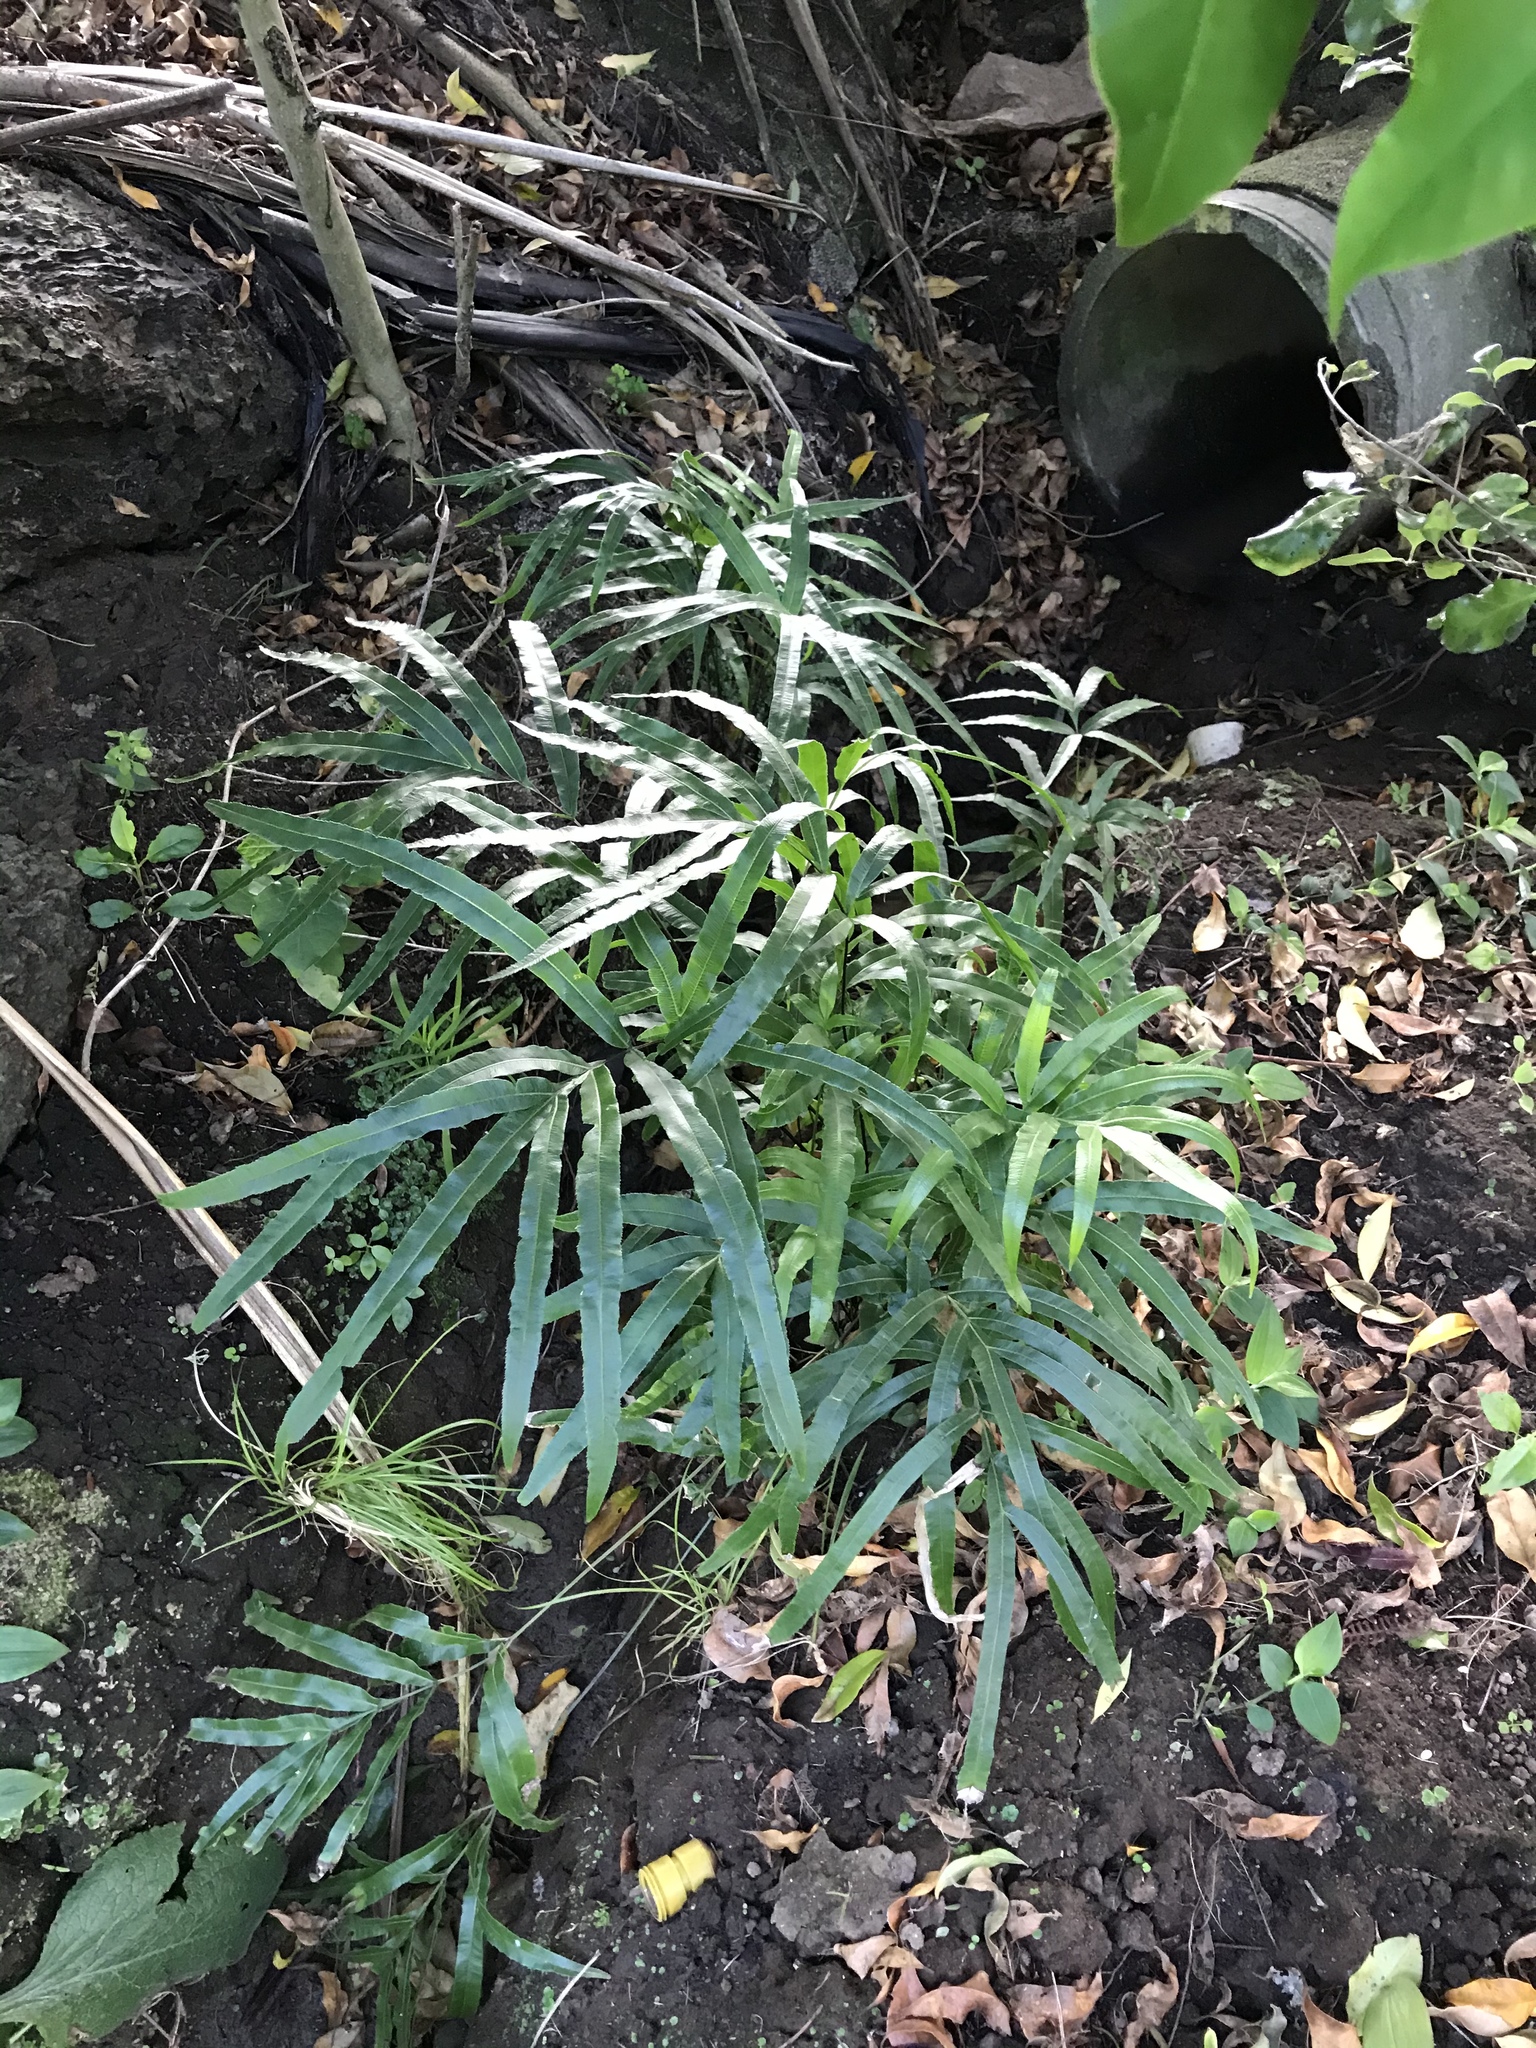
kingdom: Plantae
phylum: Tracheophyta
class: Polypodiopsida
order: Polypodiales
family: Pteridaceae
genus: Pteris
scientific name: Pteris cretica
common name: Ribbon fern
